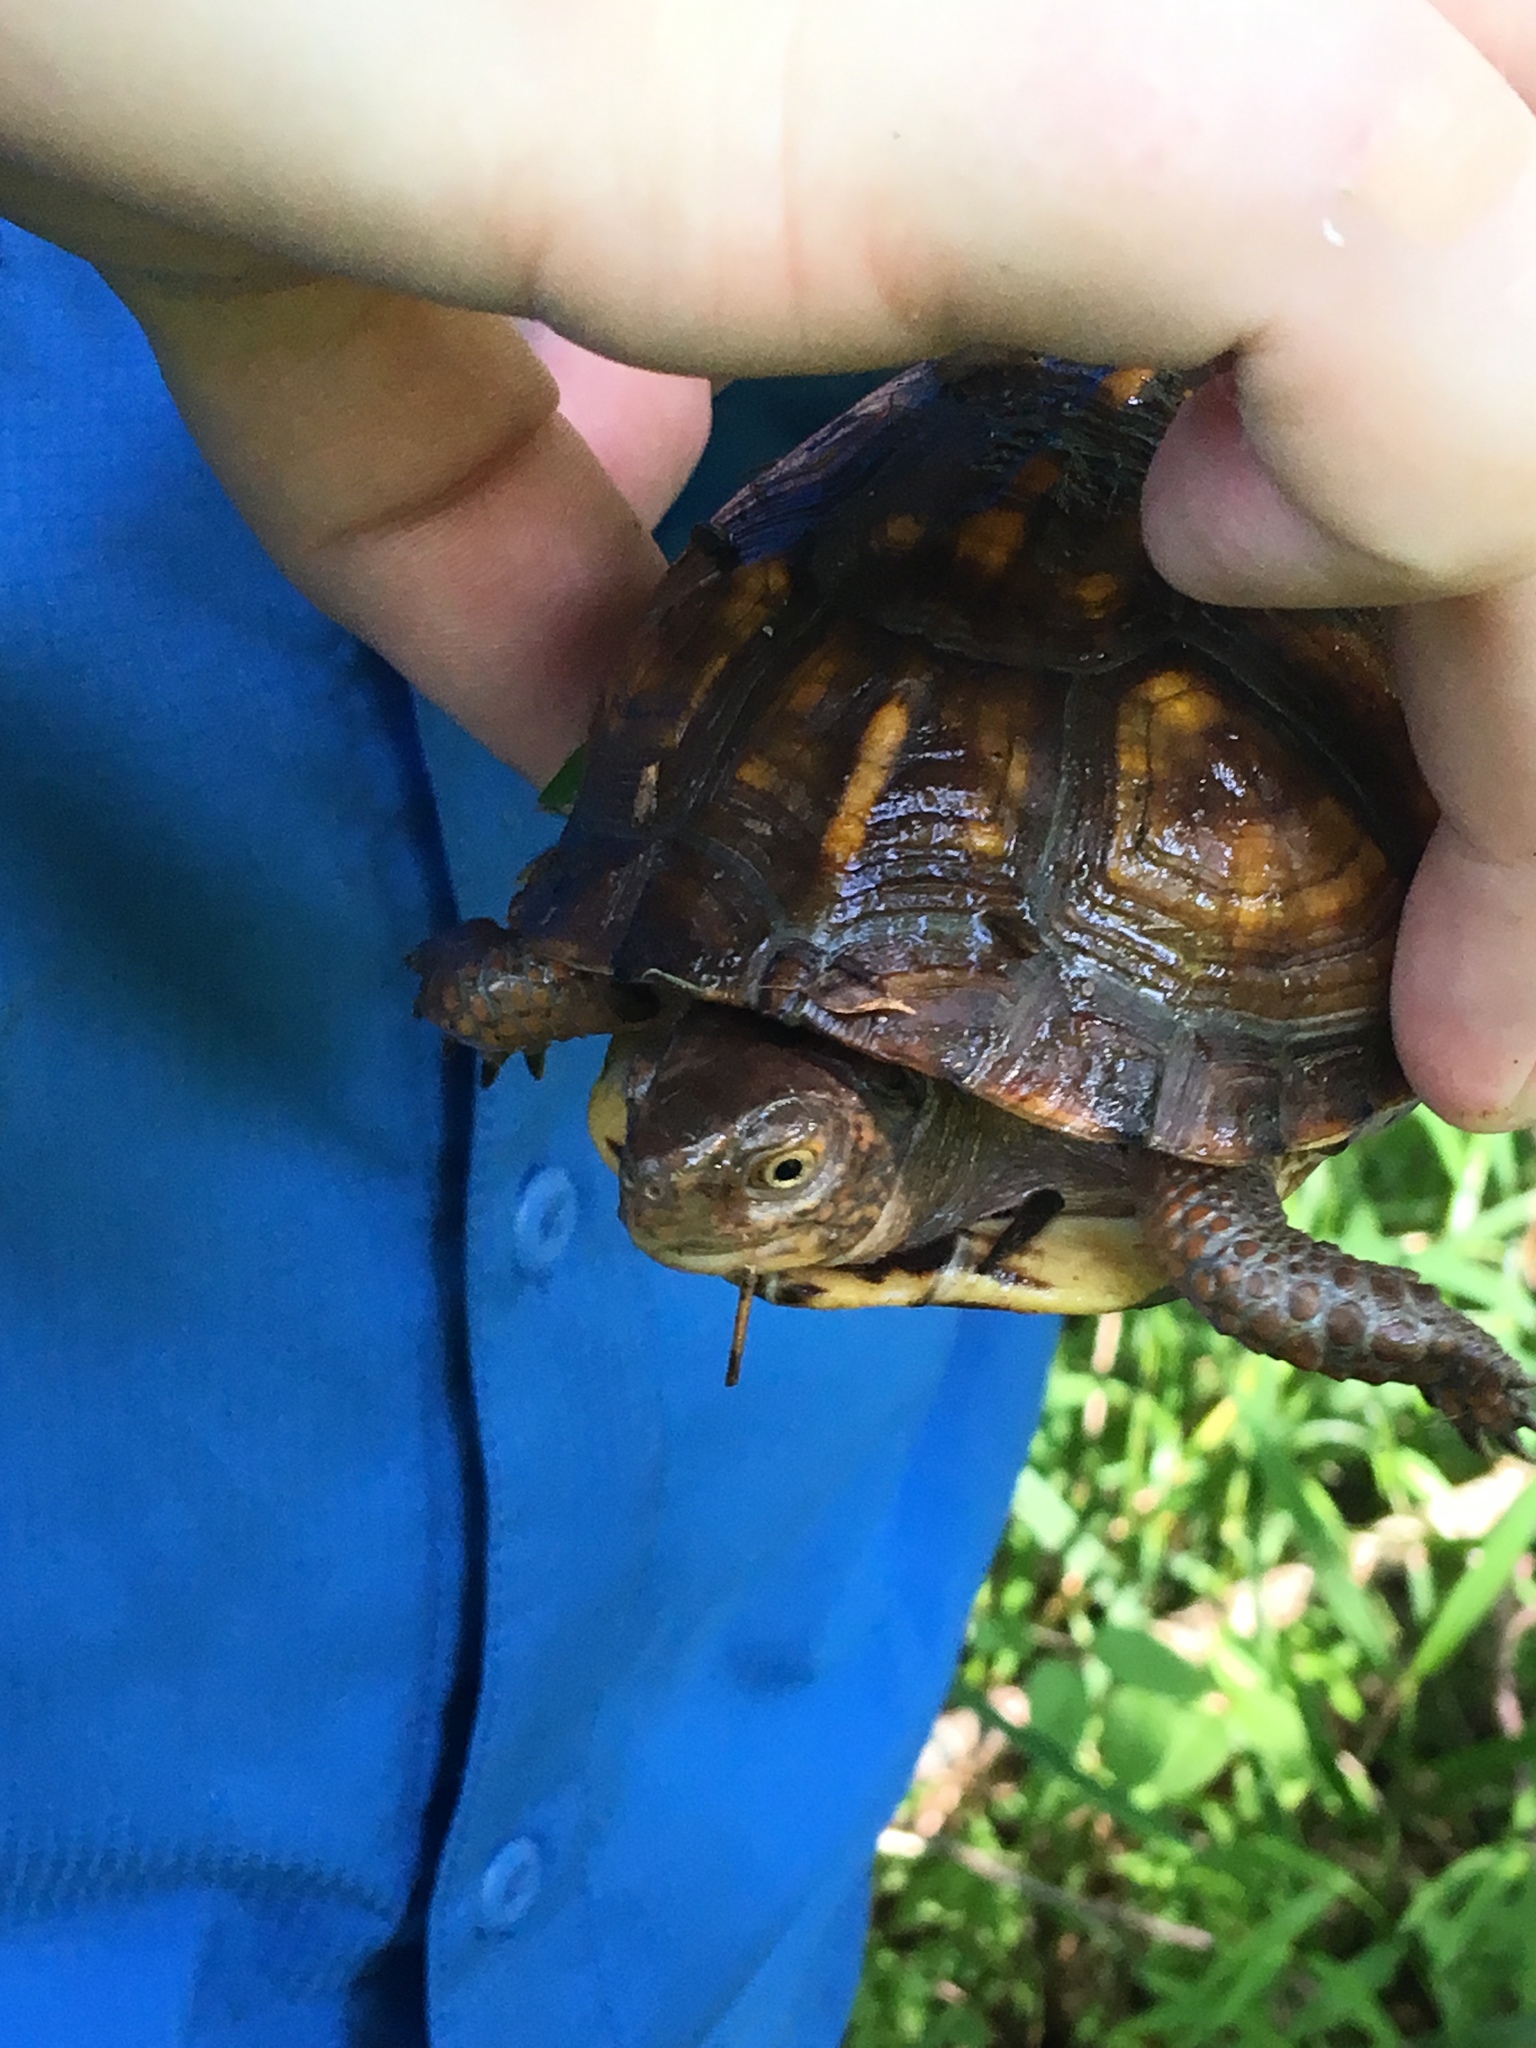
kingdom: Animalia
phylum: Chordata
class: Testudines
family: Emydidae
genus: Terrapene
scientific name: Terrapene carolina
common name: Common box turtle
